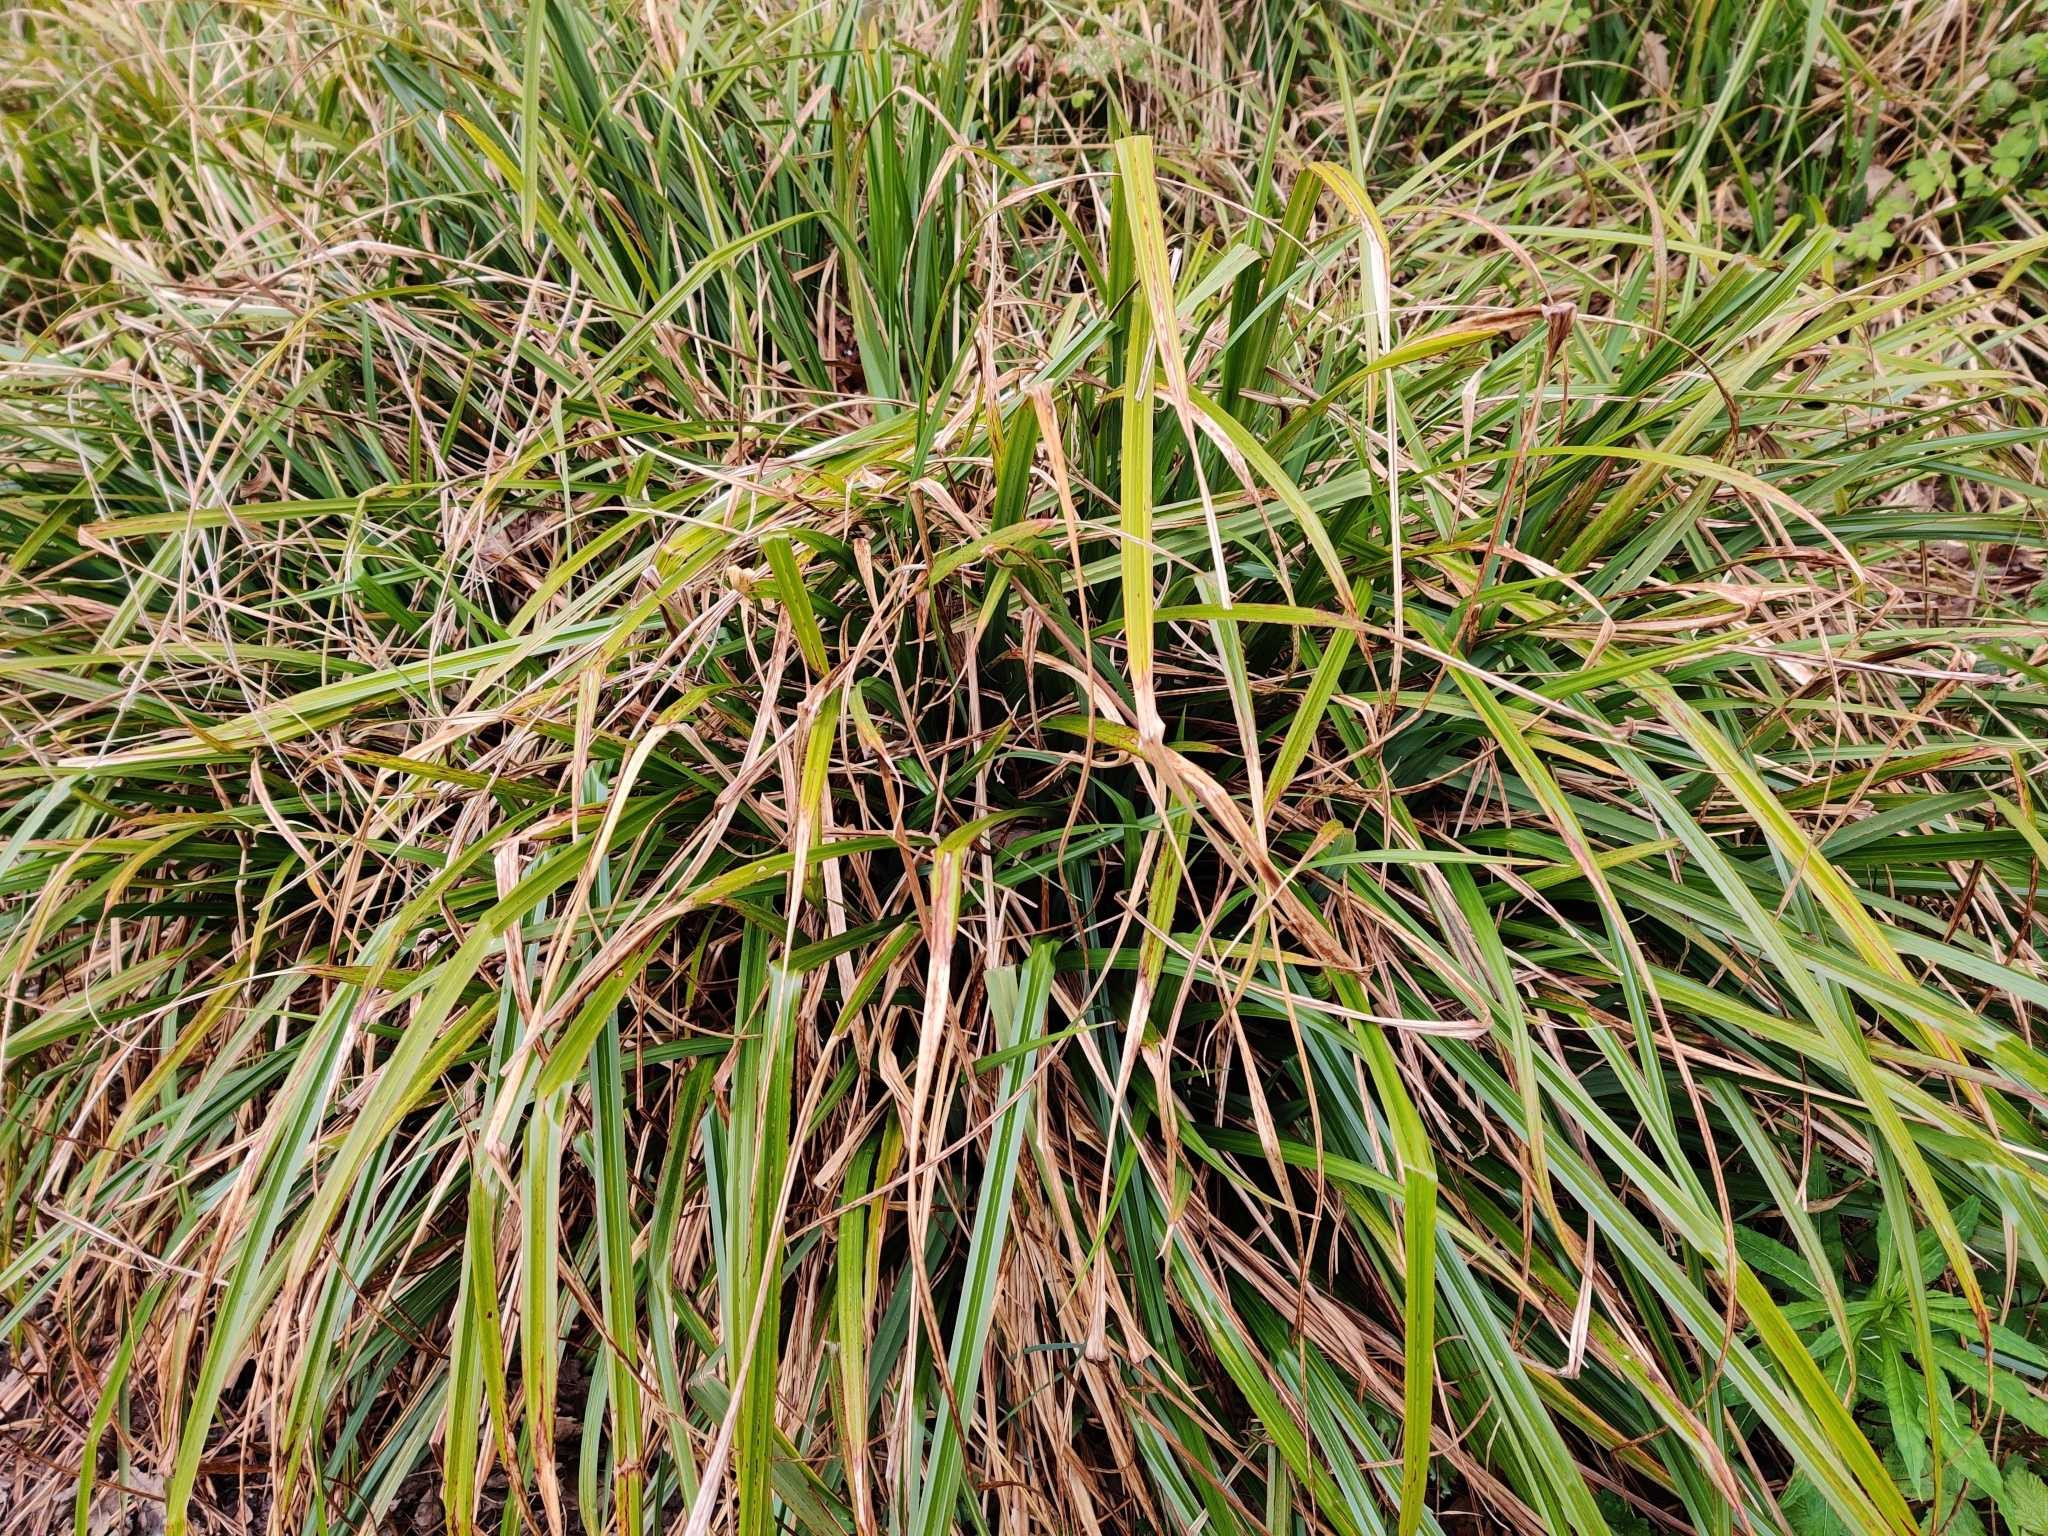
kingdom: Plantae
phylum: Tracheophyta
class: Liliopsida
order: Poales
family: Cyperaceae
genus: Carex
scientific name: Carex pendula
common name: Pendulous sedge
